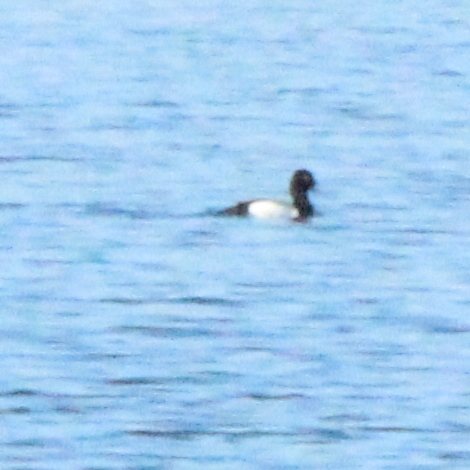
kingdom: Animalia
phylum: Chordata
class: Aves
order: Anseriformes
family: Anatidae
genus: Aythya
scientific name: Aythya affinis
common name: Lesser scaup
